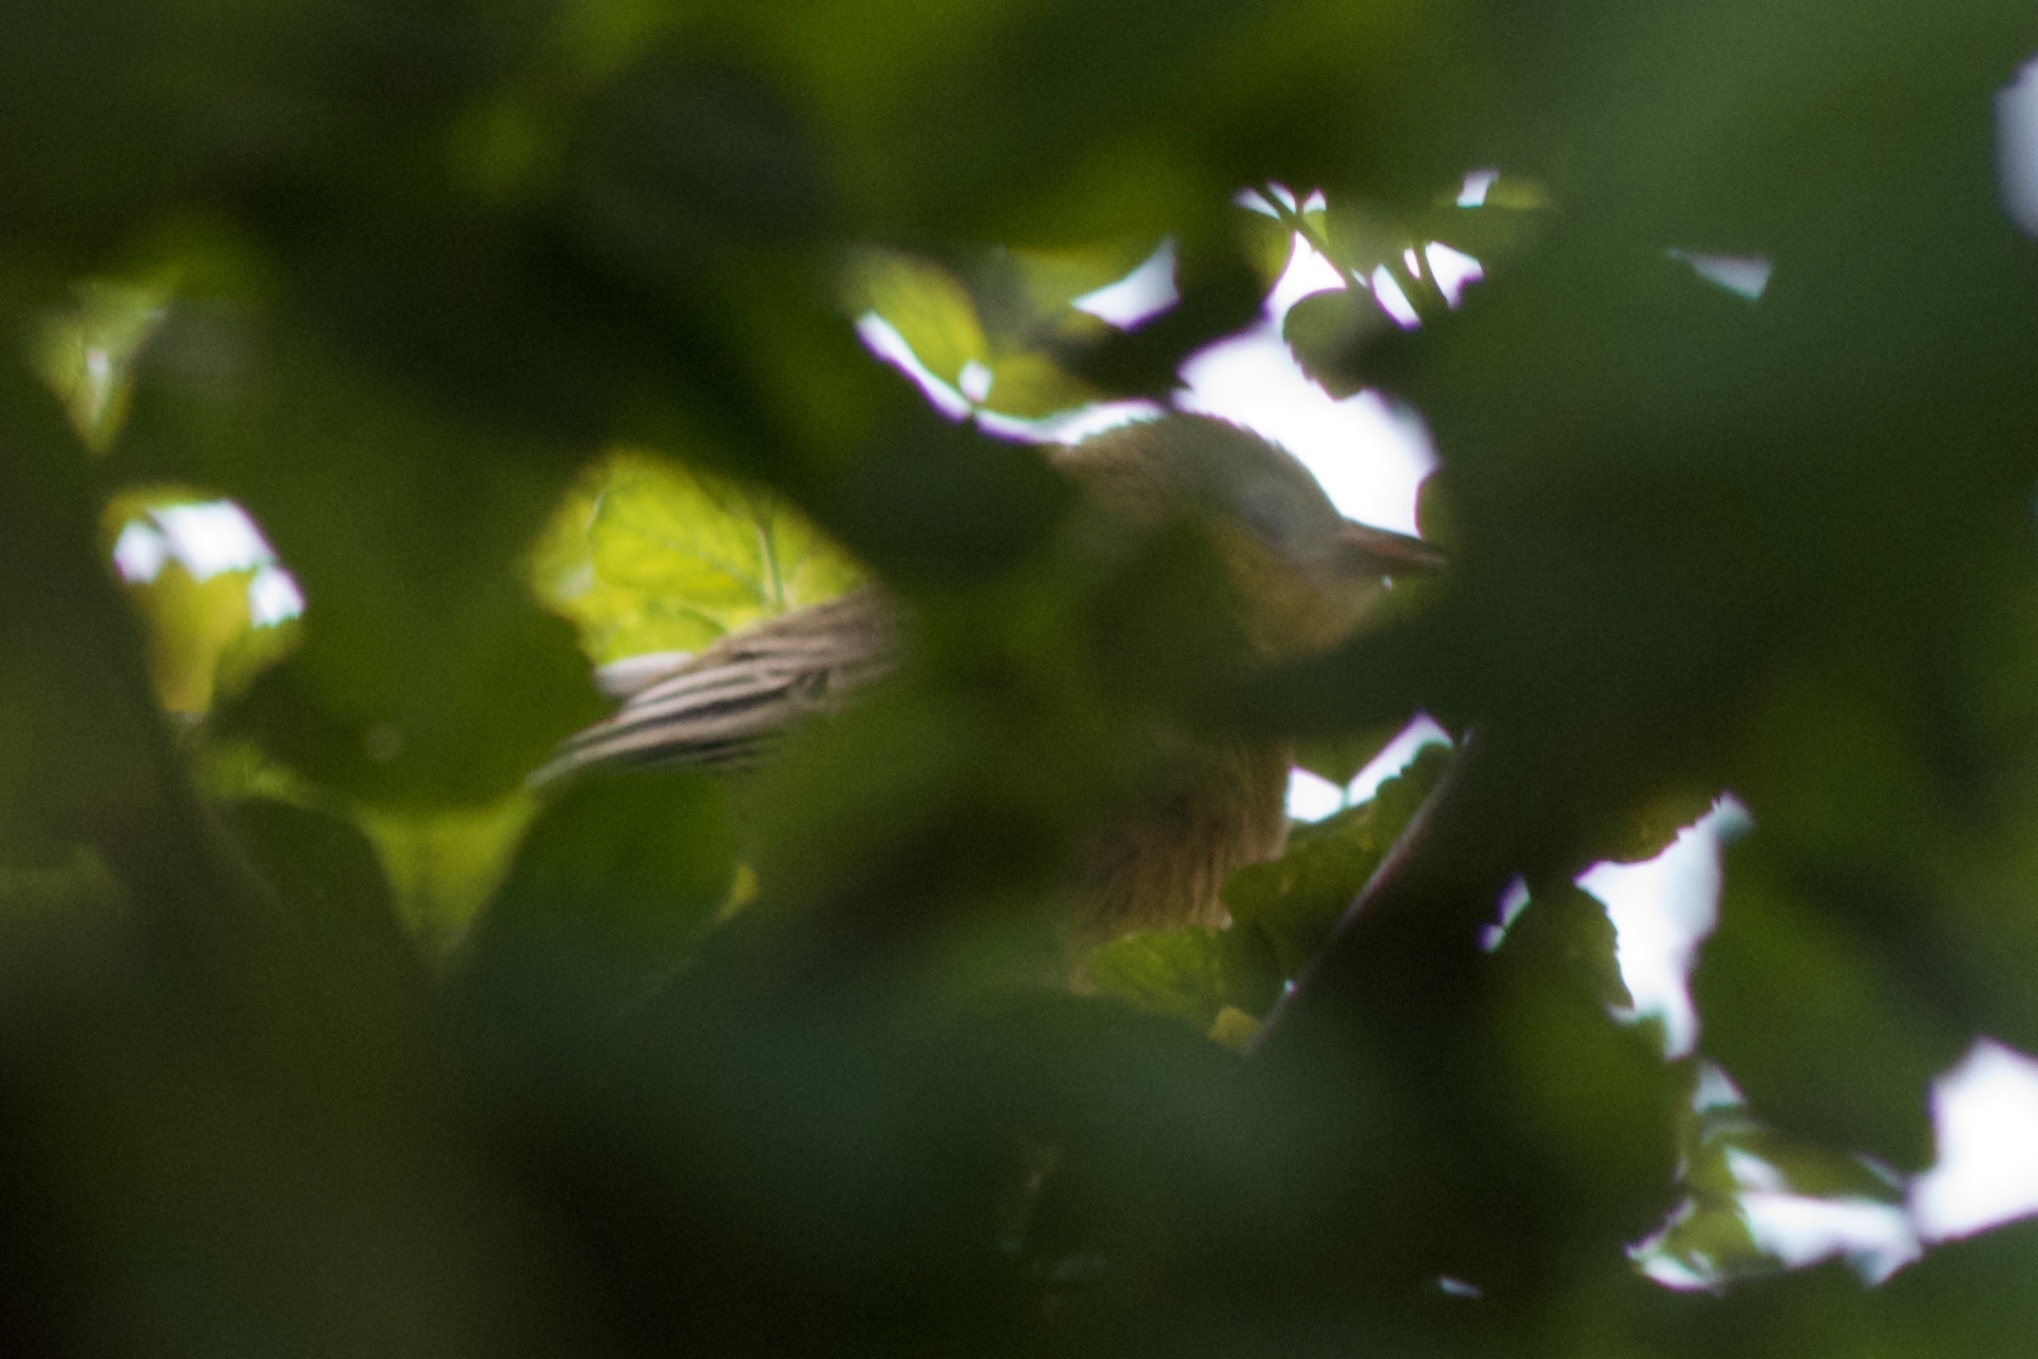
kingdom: Animalia
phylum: Chordata
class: Aves
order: Passeriformes
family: Icteridae
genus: Icterus
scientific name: Icterus cucullatus
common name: Hooded oriole
